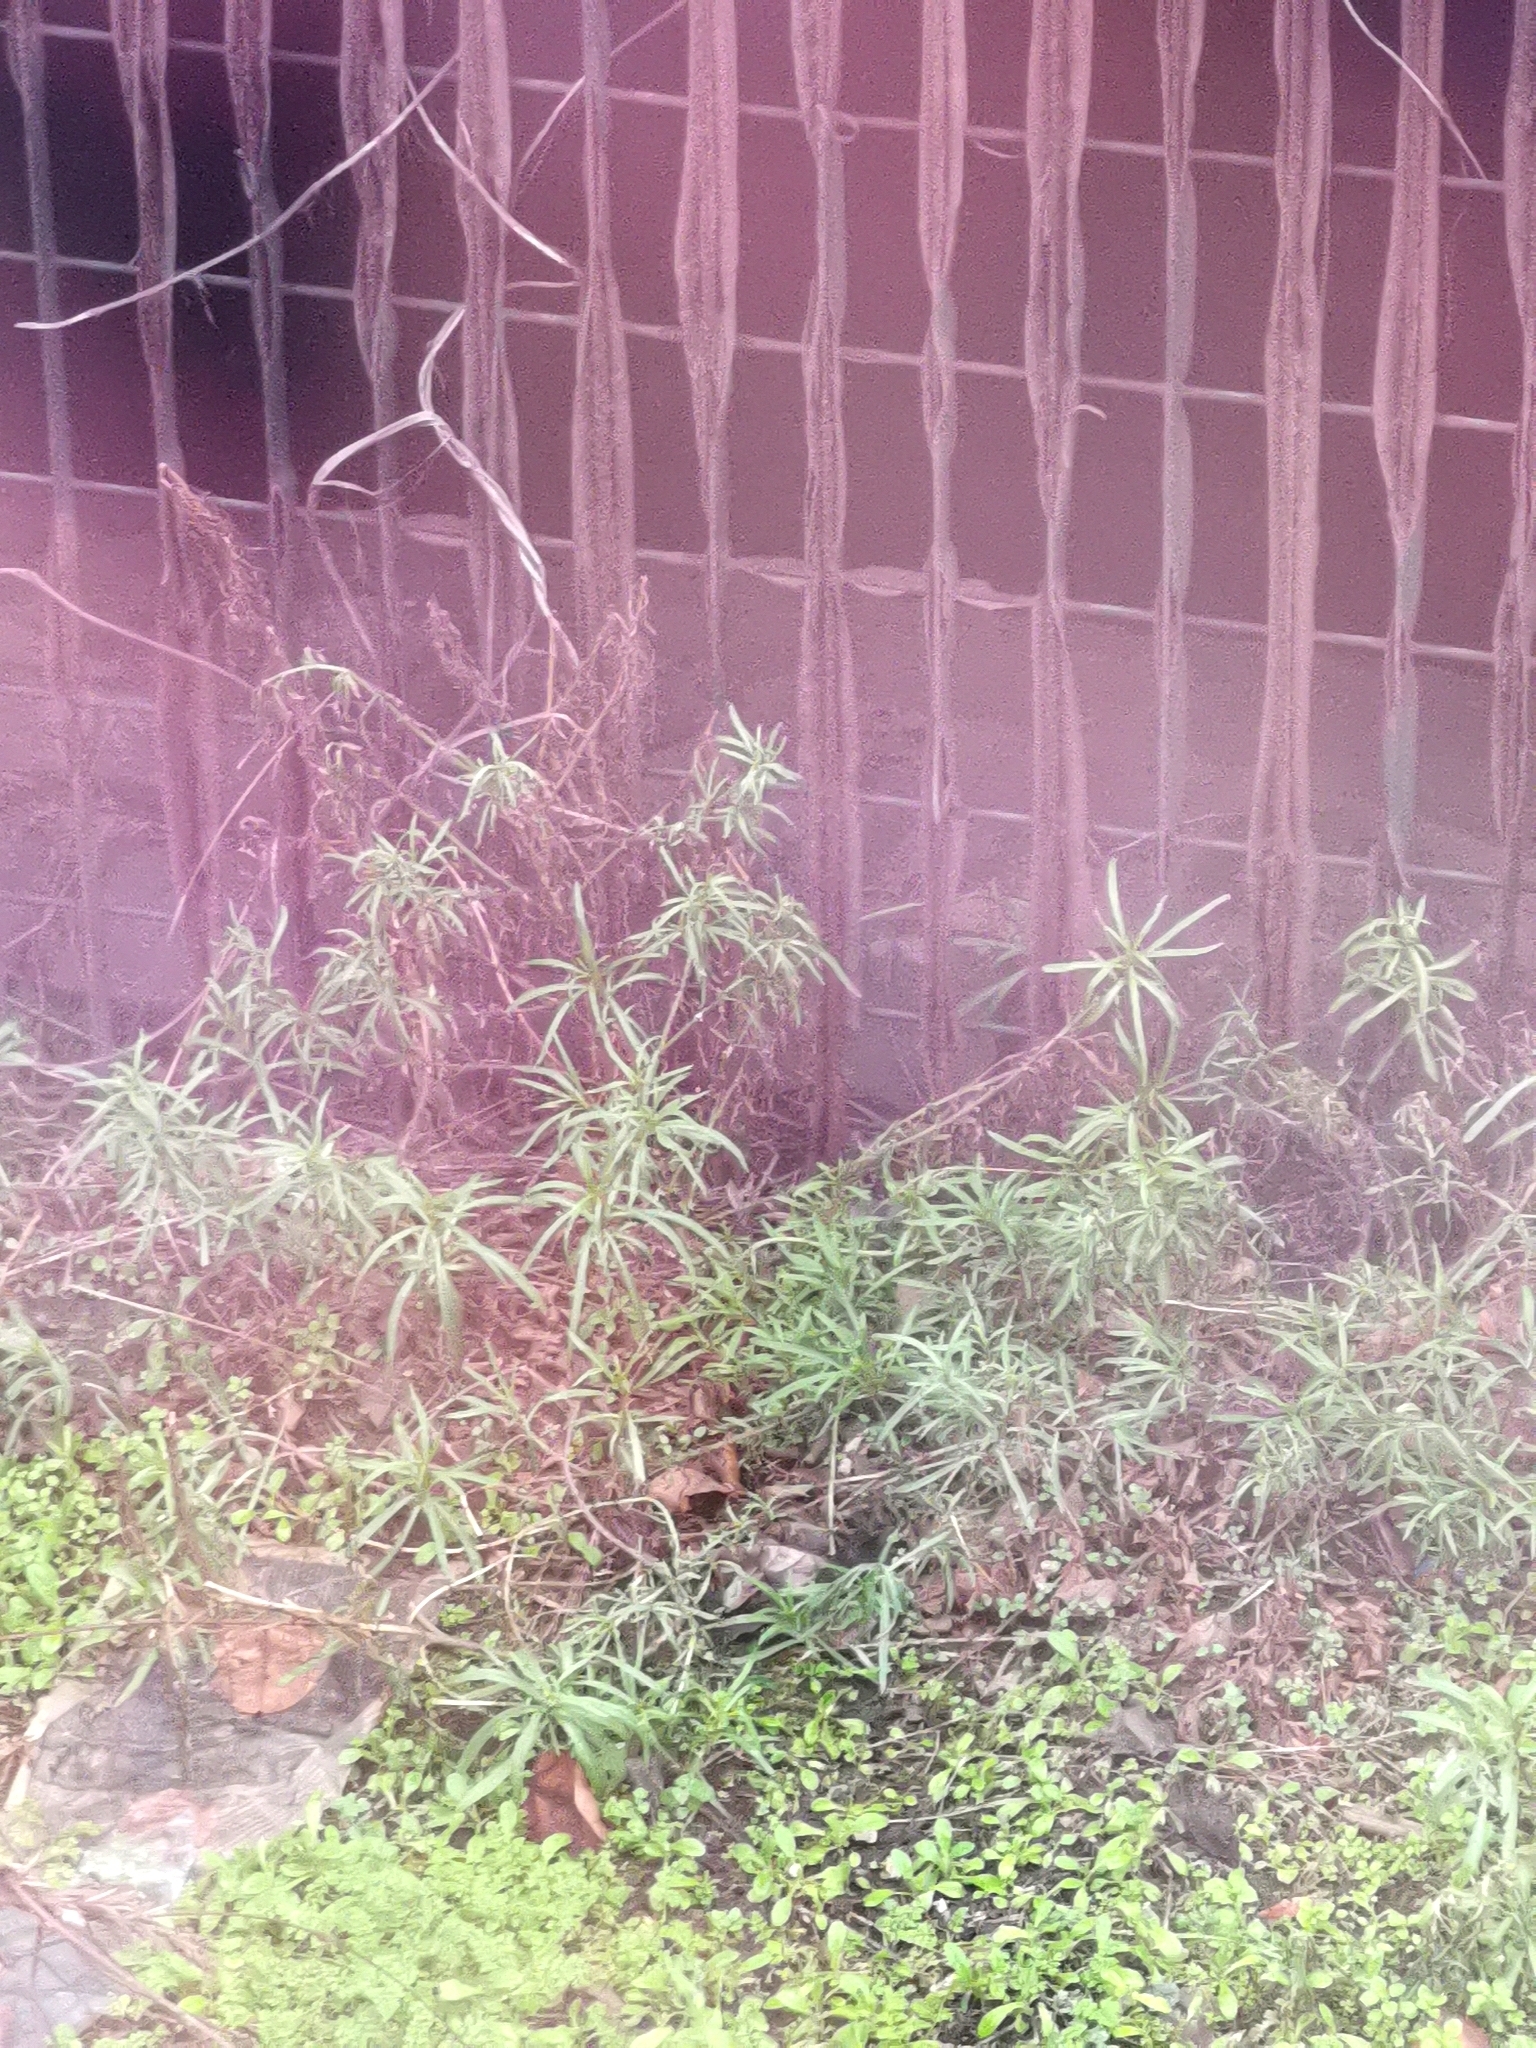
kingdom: Plantae
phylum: Tracheophyta
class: Magnoliopsida
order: Asterales
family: Asteraceae
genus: Senecio
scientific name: Senecio inaequidens
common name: Narrow-leaved ragwort
